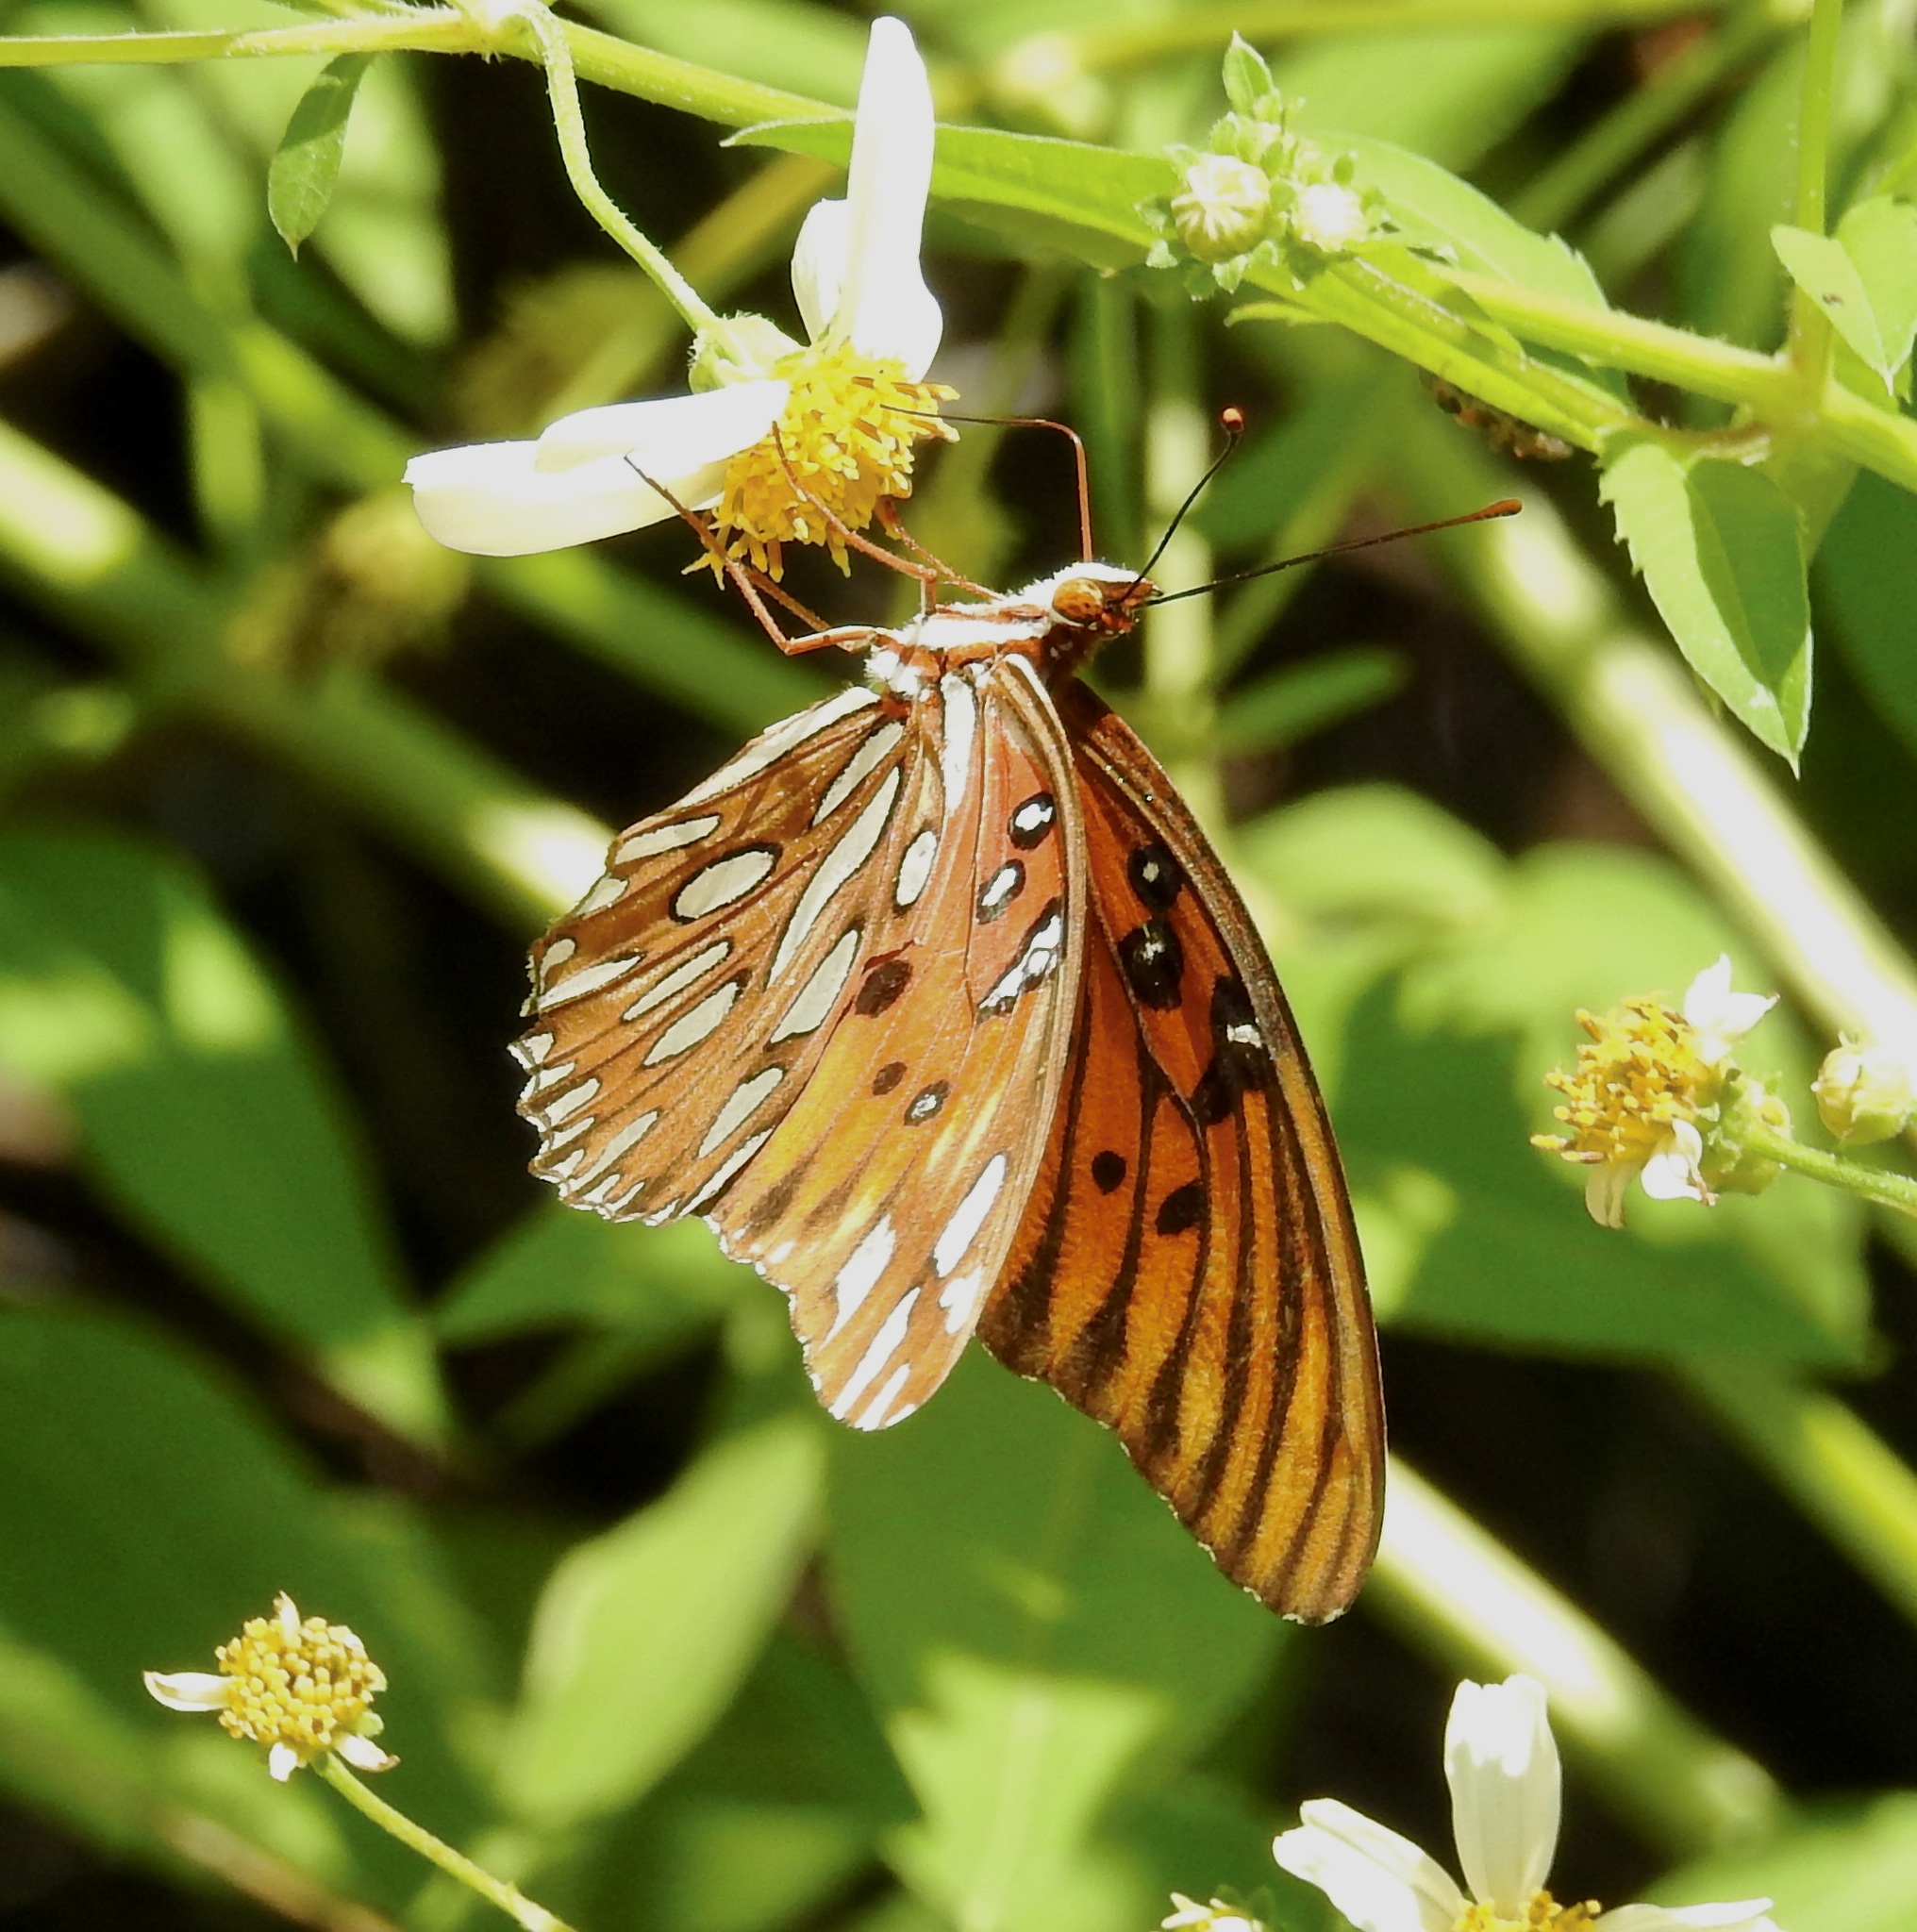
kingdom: Animalia
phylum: Arthropoda
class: Insecta
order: Lepidoptera
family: Nymphalidae
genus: Dione
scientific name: Dione vanillae
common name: Gulf fritillary
